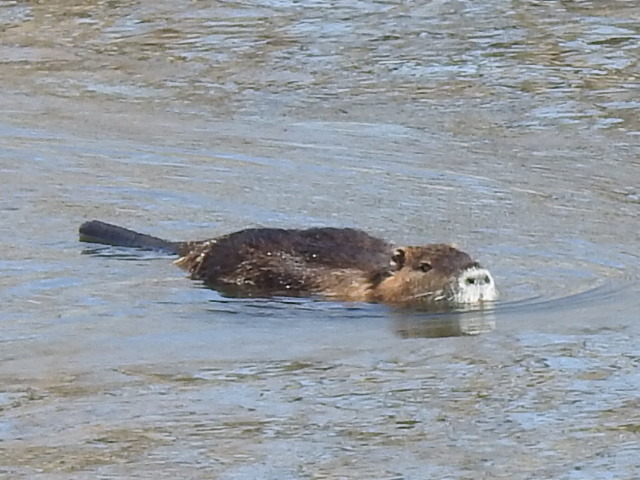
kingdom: Animalia
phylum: Chordata
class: Mammalia
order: Rodentia
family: Myocastoridae
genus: Myocastor
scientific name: Myocastor coypus
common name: Coypu
